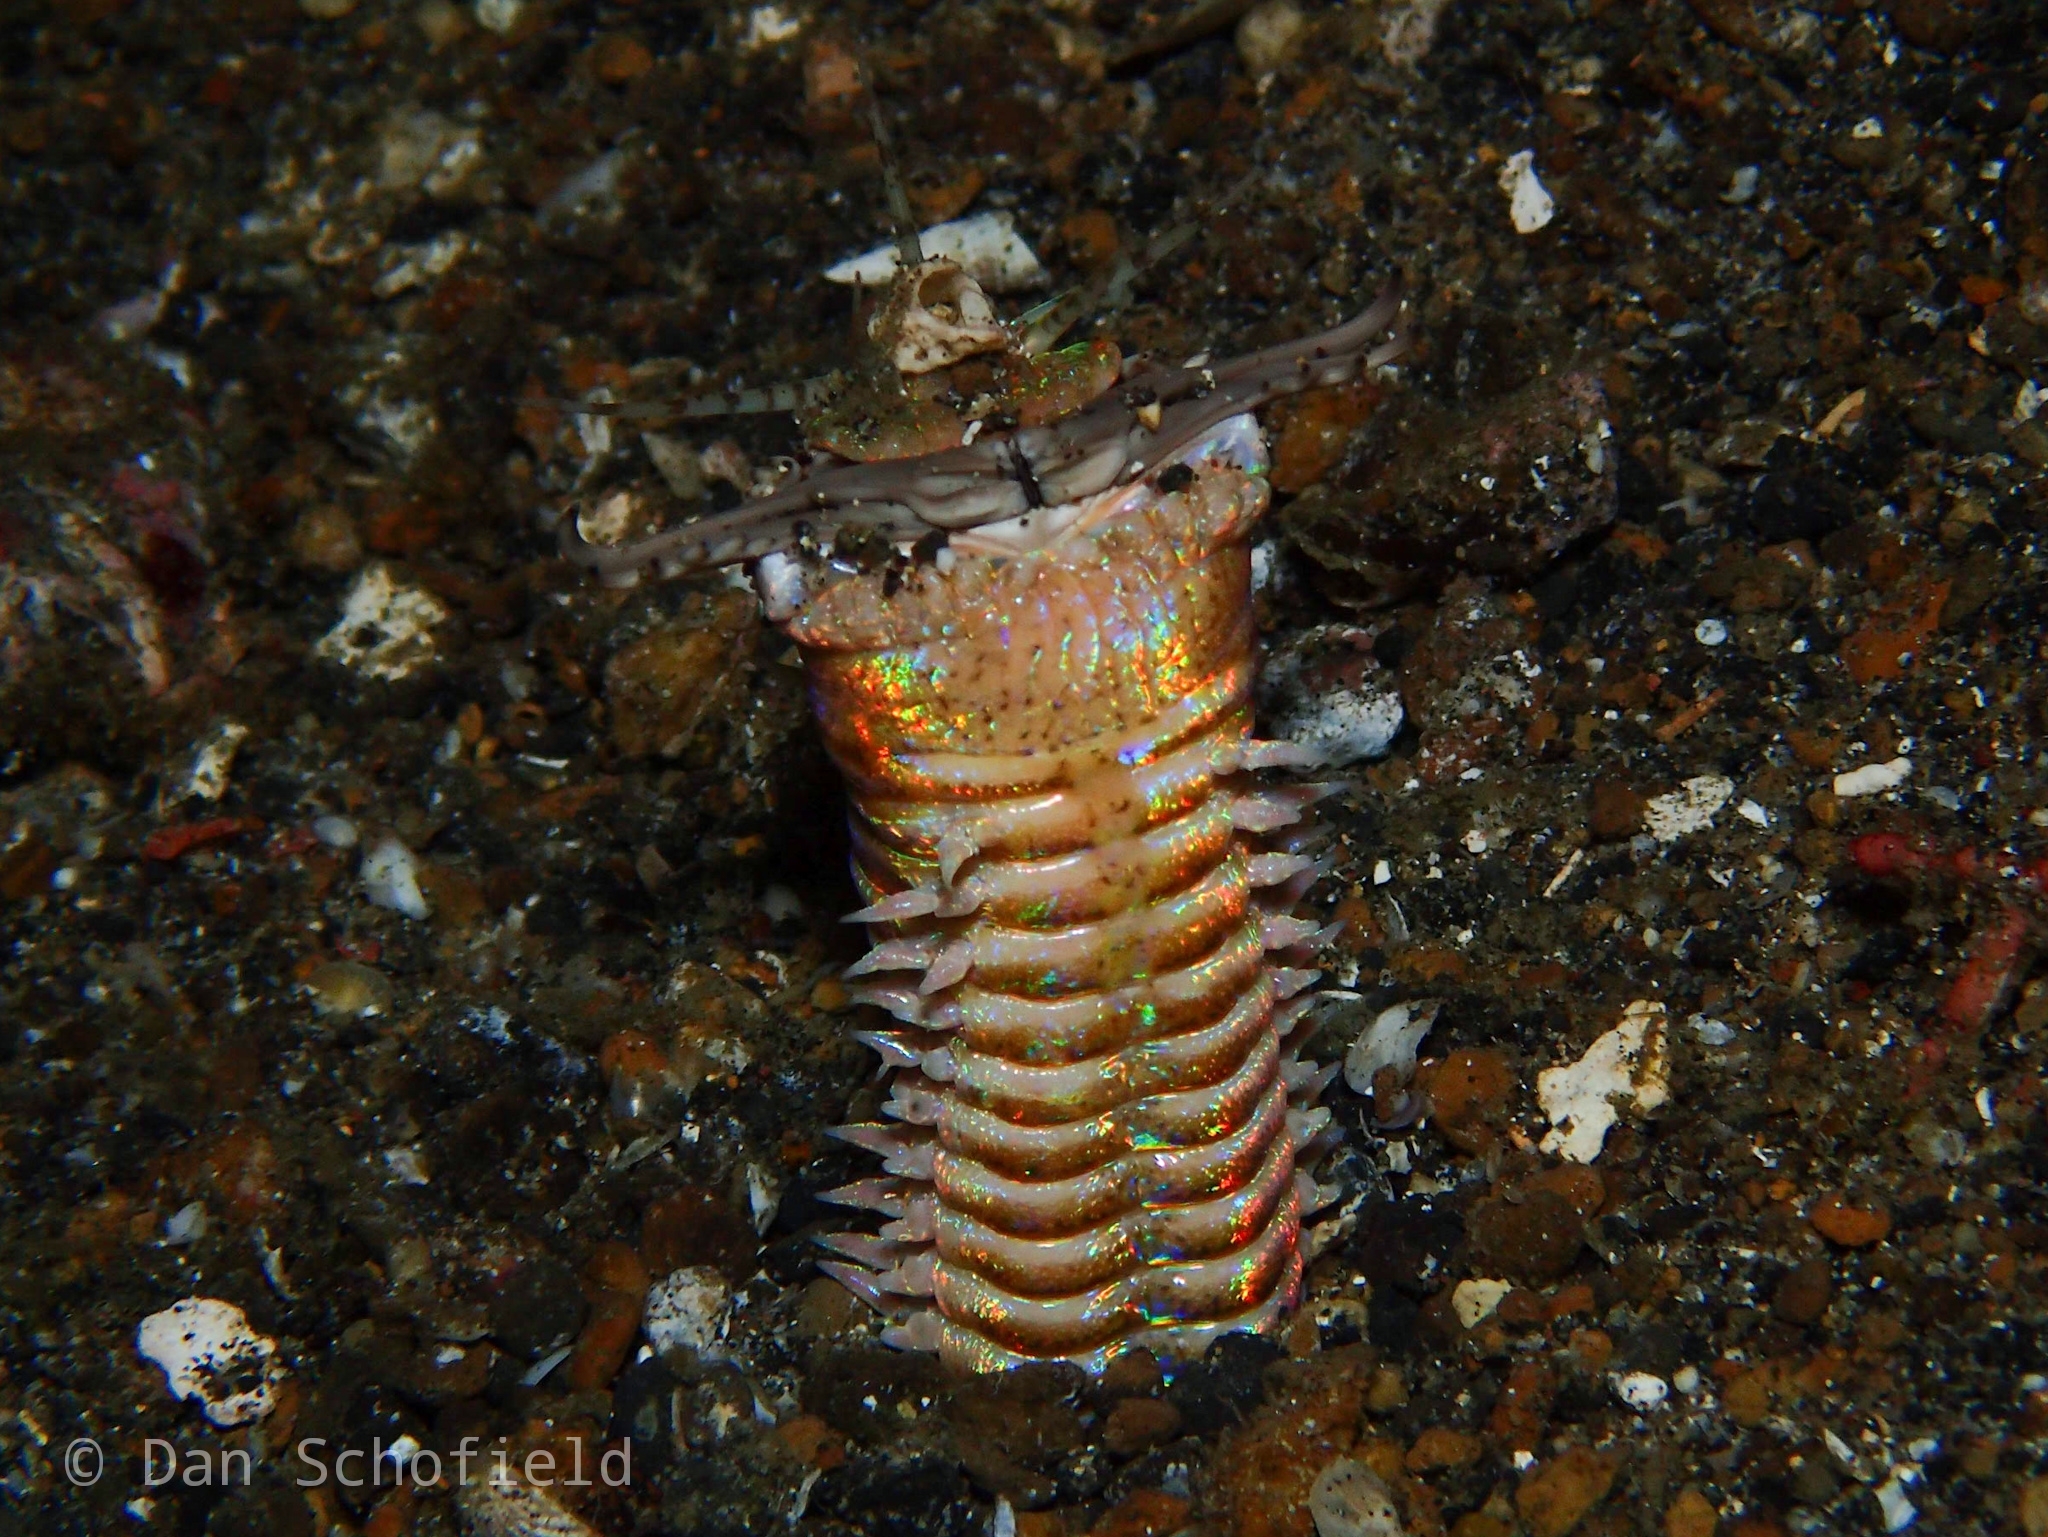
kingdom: Animalia
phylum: Annelida
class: Polychaeta
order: Eunicida
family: Eunicidae
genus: Eunice
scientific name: Eunice aphroditois
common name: Wonder-worm
